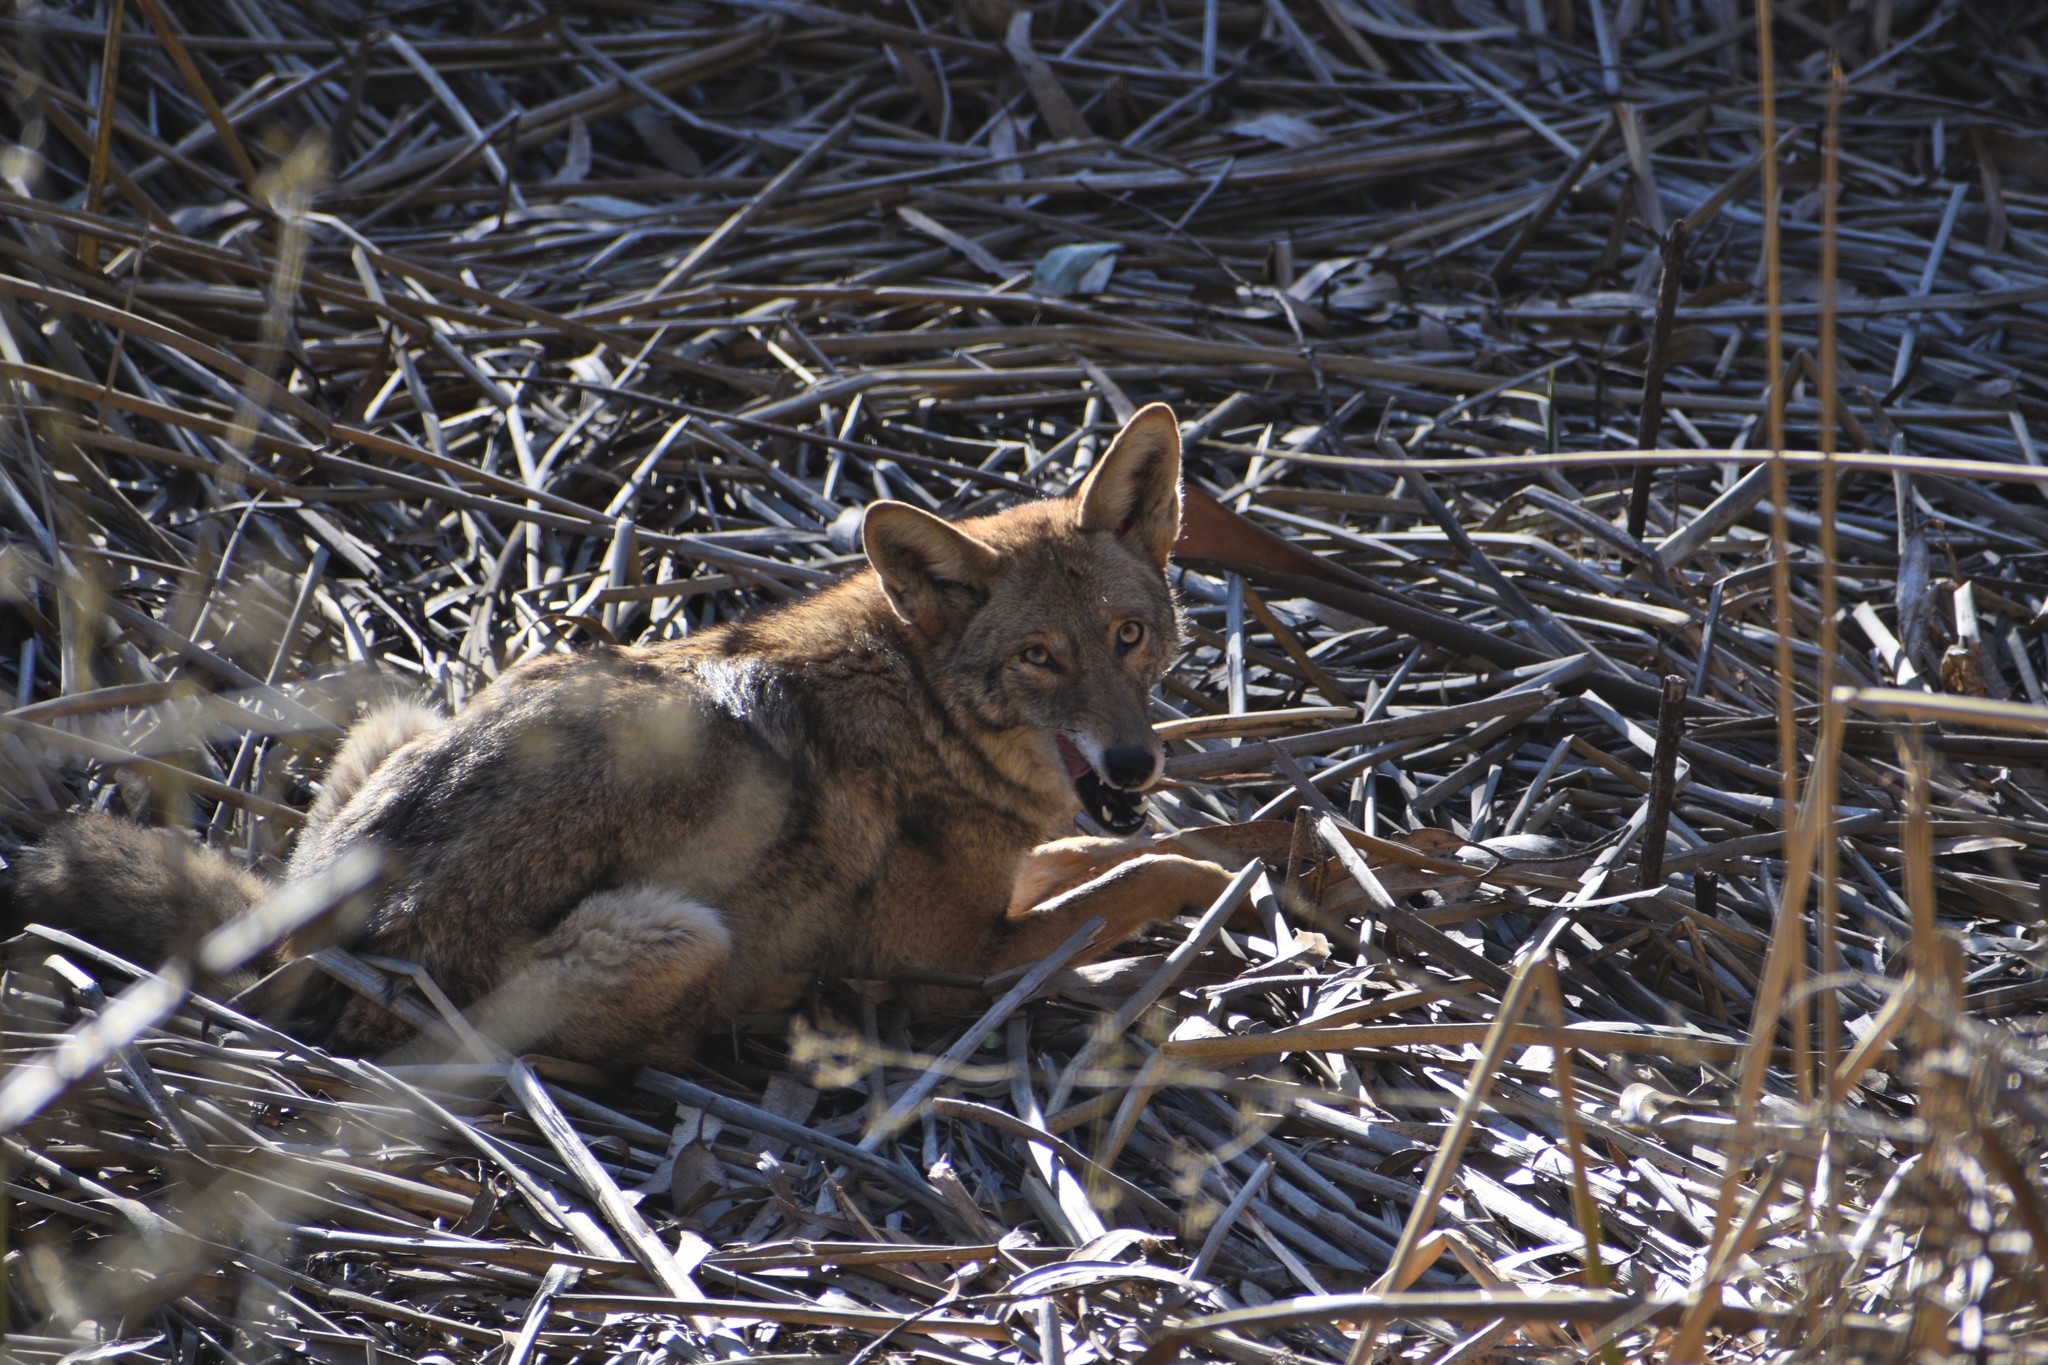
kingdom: Animalia
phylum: Chordata
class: Mammalia
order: Carnivora
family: Canidae
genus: Canis
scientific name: Canis latrans
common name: Coyote
